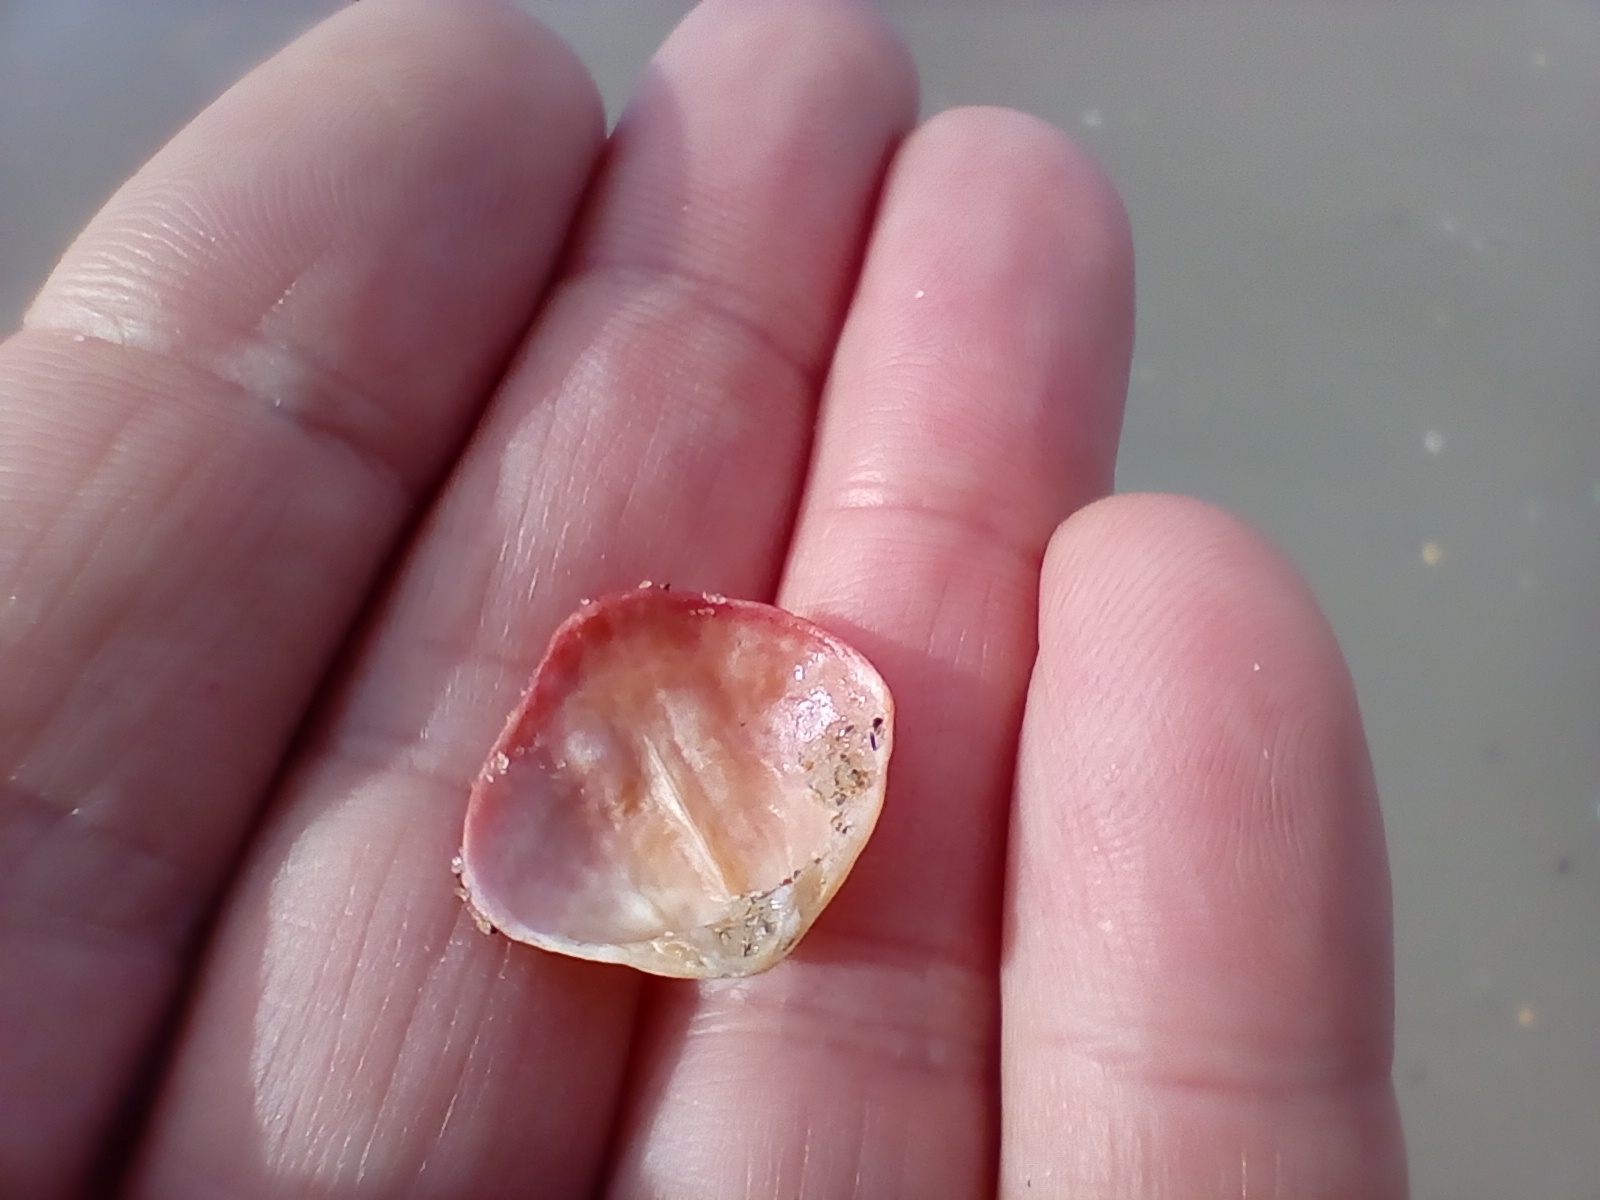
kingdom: Animalia
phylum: Brachiopoda
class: Rhynchonellata
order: Terebratulida
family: Terebratellidae
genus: Calloria
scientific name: Calloria inconspicua
